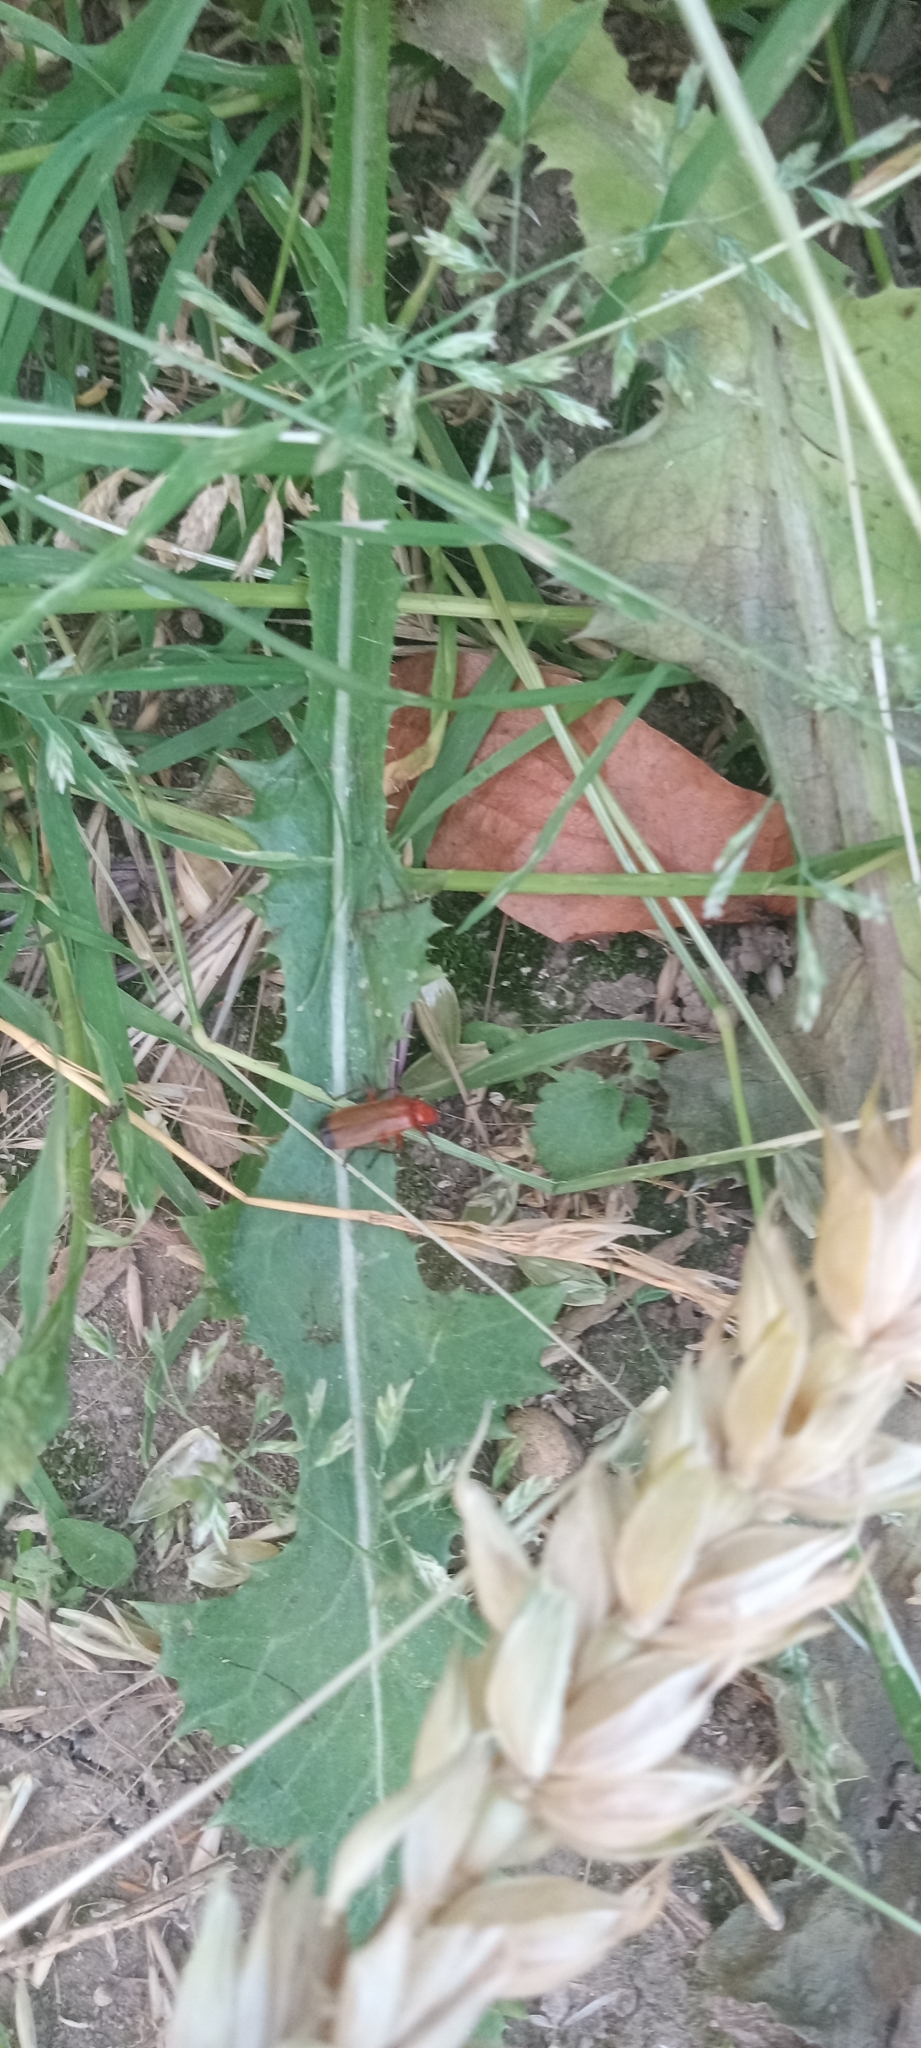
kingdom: Animalia
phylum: Arthropoda
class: Insecta
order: Coleoptera
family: Cantharidae
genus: Rhagonycha
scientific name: Rhagonycha fulva
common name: Common red soldier beetle
